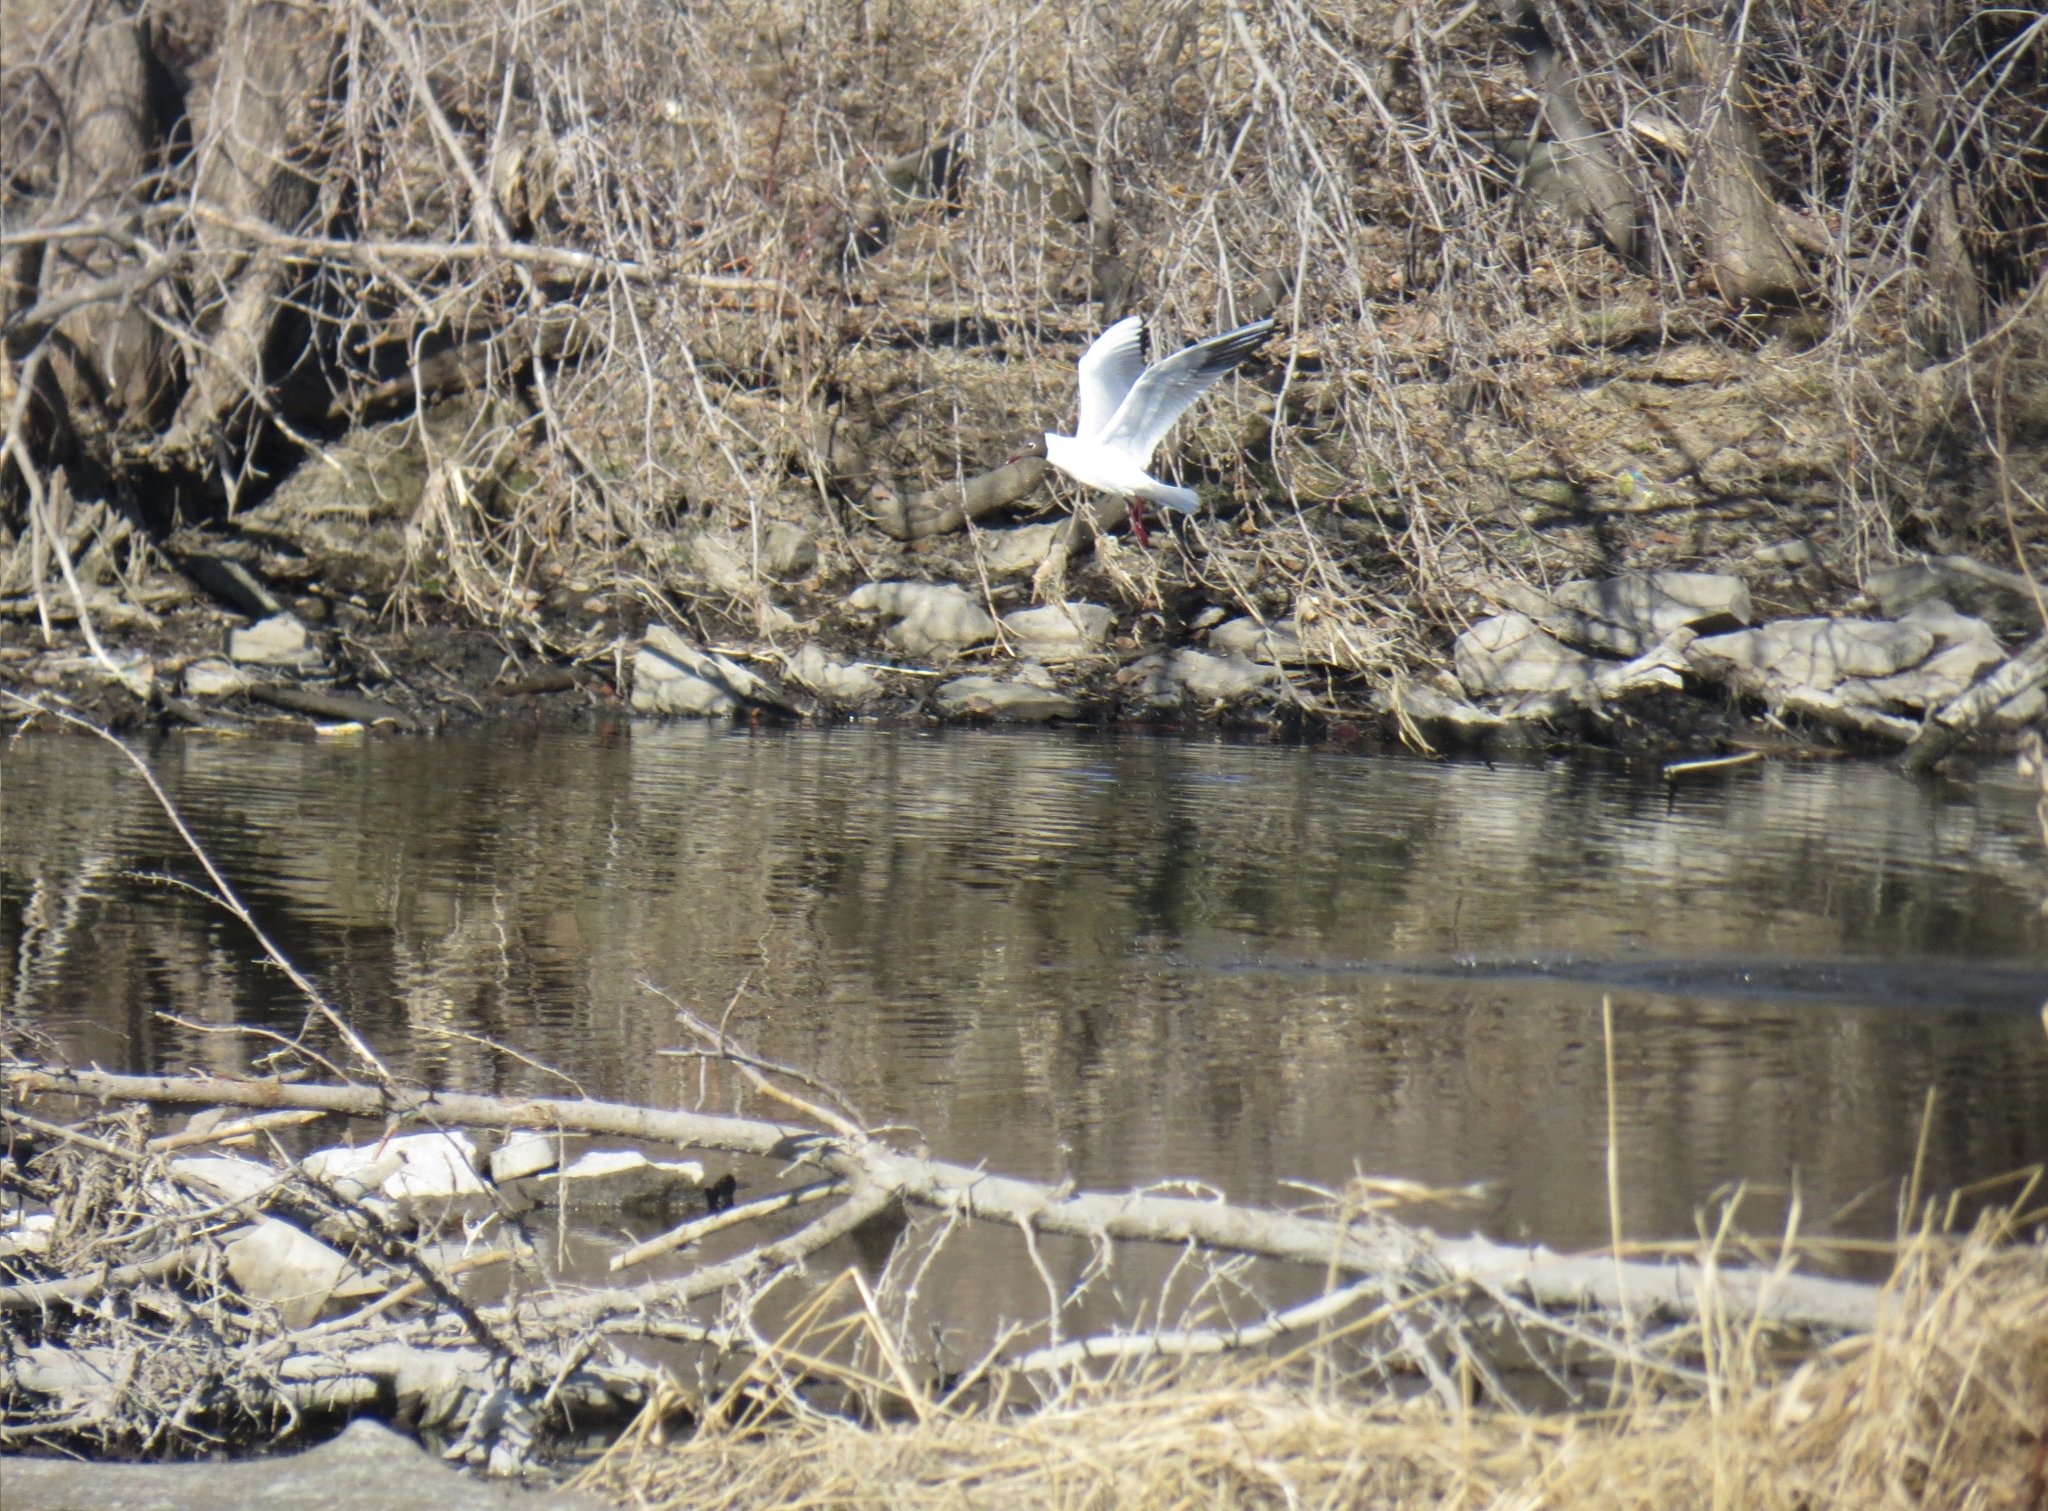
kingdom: Animalia
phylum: Chordata
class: Aves
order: Charadriiformes
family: Laridae
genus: Chroicocephalus
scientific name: Chroicocephalus ridibundus
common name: Black-headed gull
